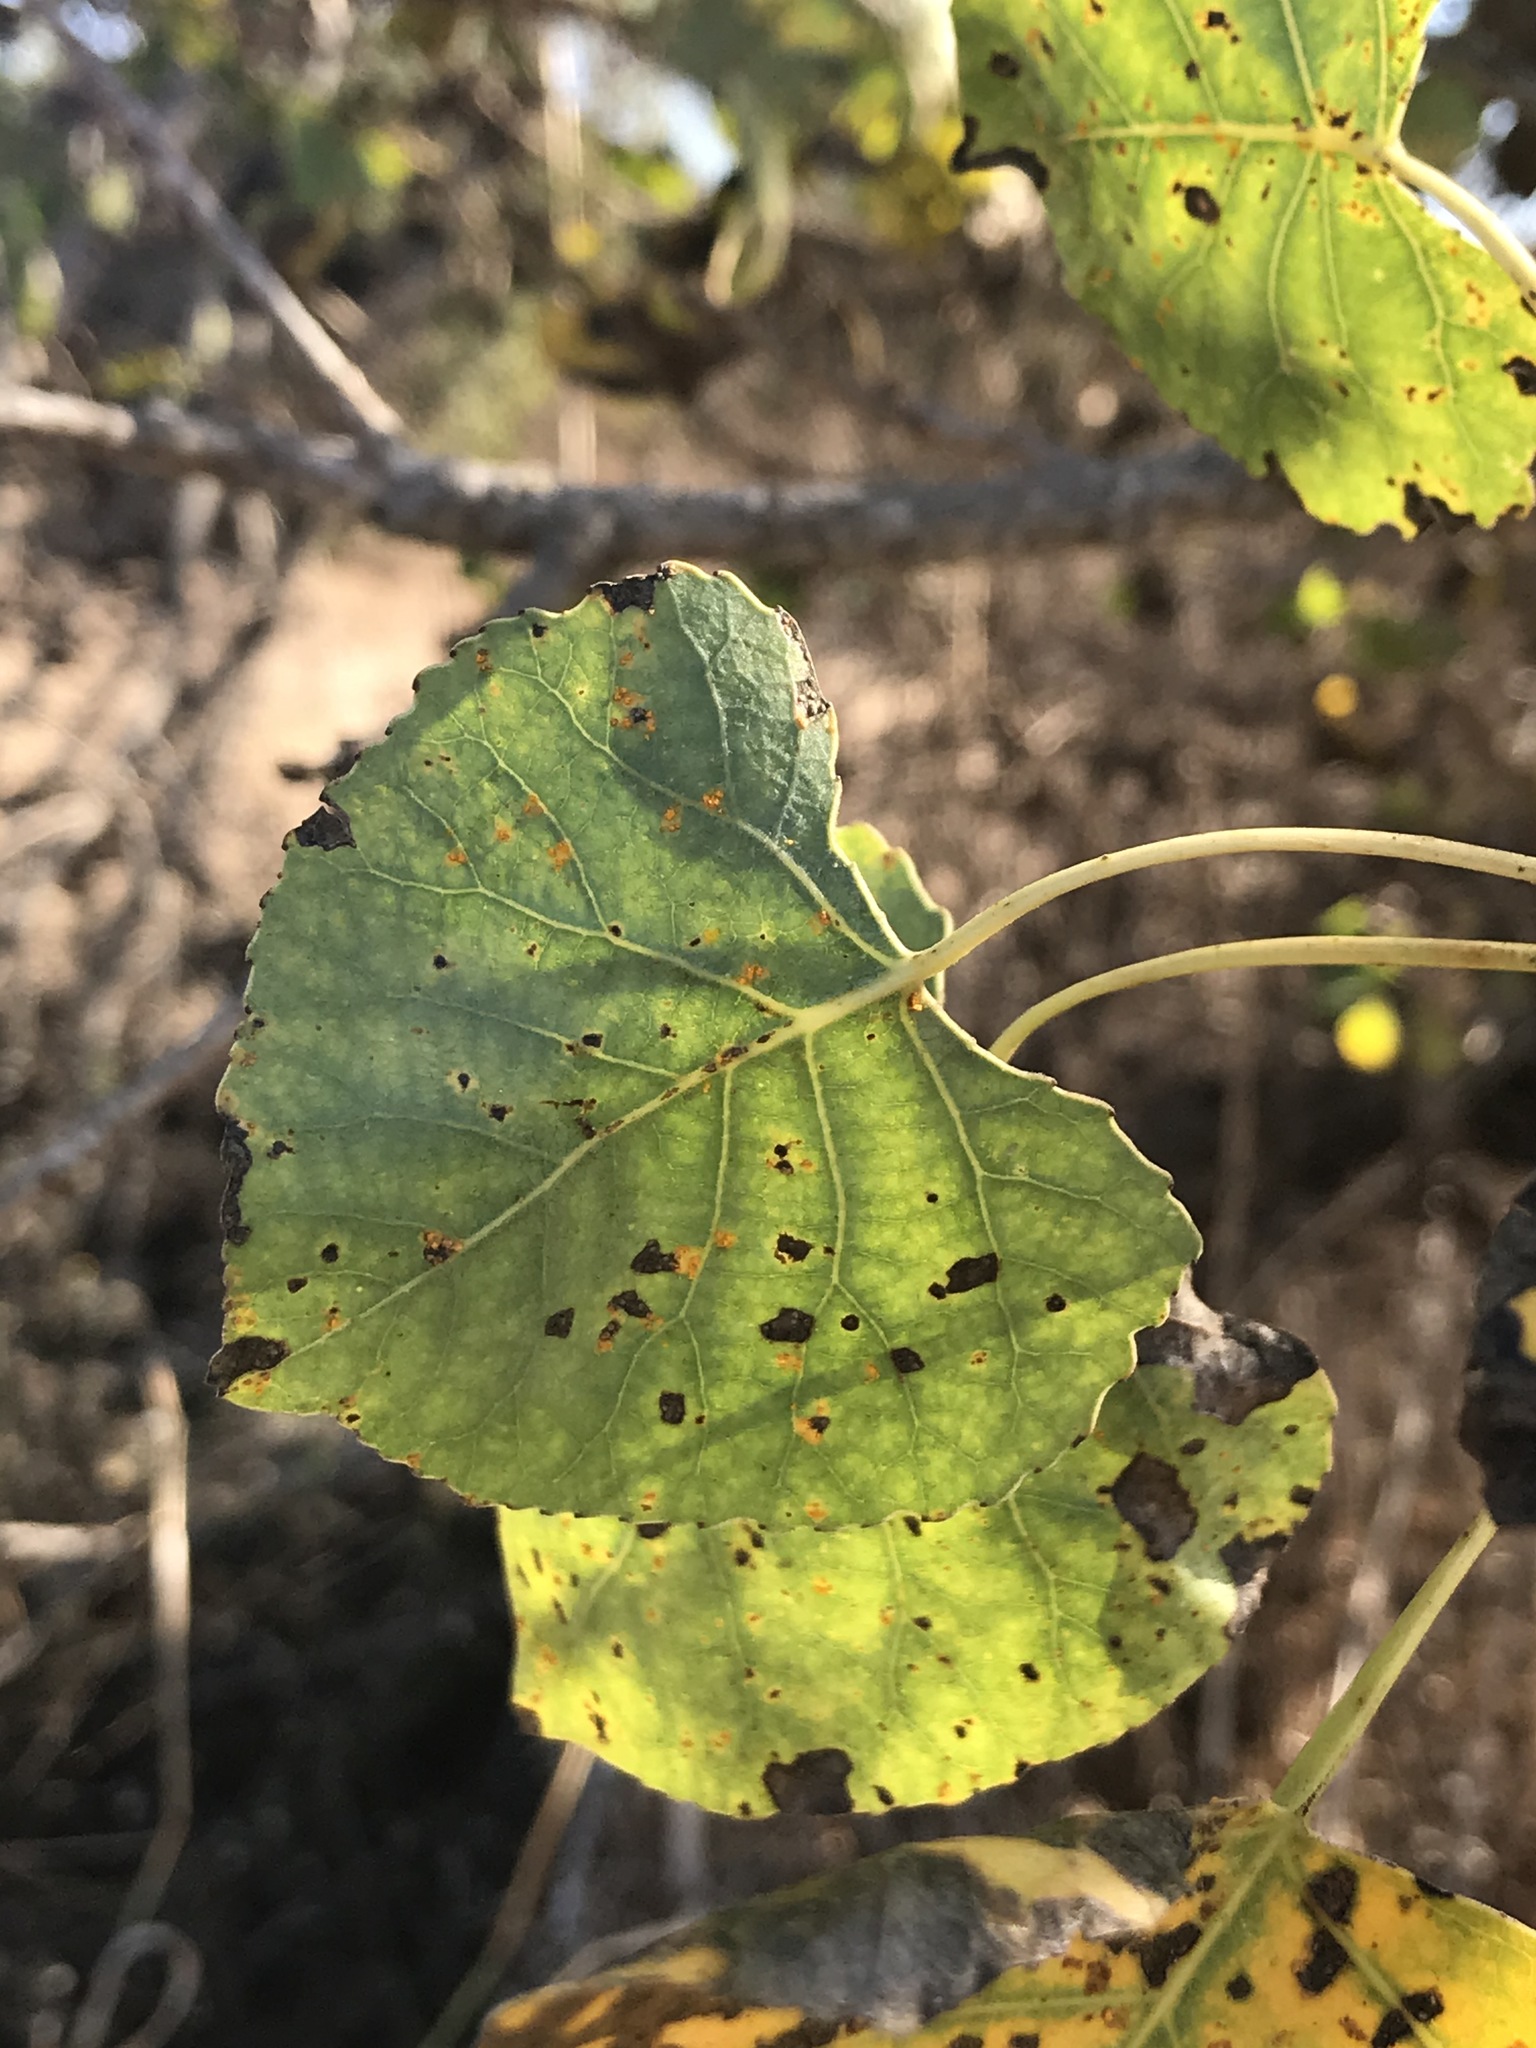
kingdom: Plantae
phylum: Tracheophyta
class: Magnoliopsida
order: Malpighiales
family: Salicaceae
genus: Populus
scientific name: Populus fremontii
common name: Fremont's cottonwood
